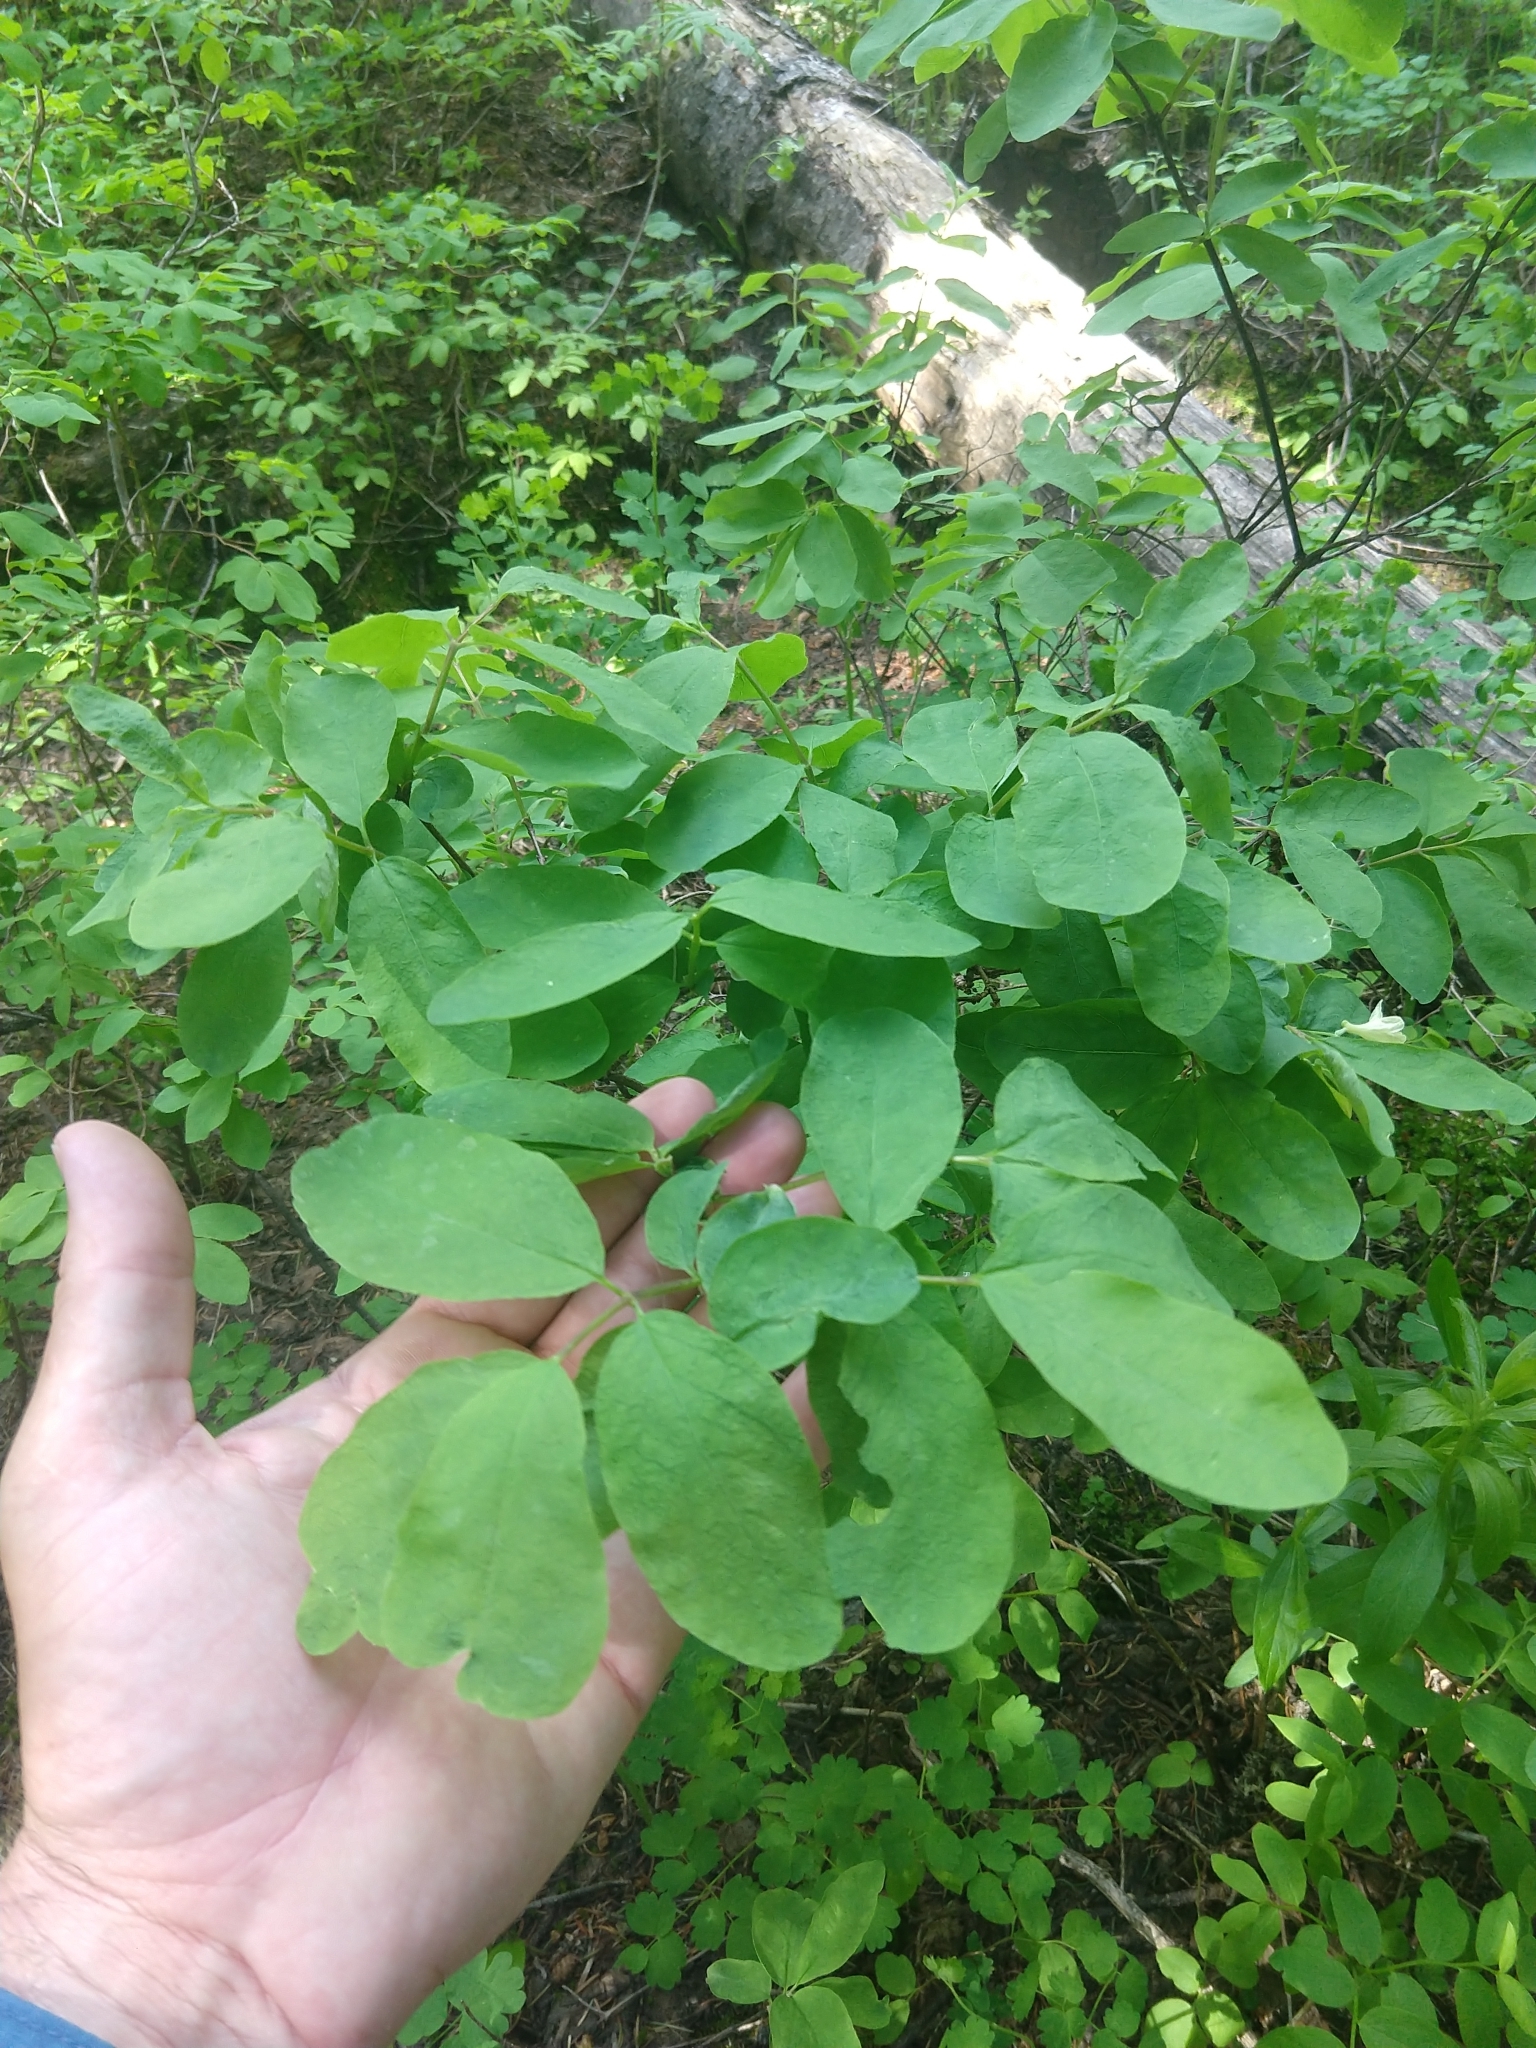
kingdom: Plantae
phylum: Tracheophyta
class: Magnoliopsida
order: Dipsacales
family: Caprifoliaceae
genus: Lonicera
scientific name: Lonicera utahensis
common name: Utah honeysuckle
